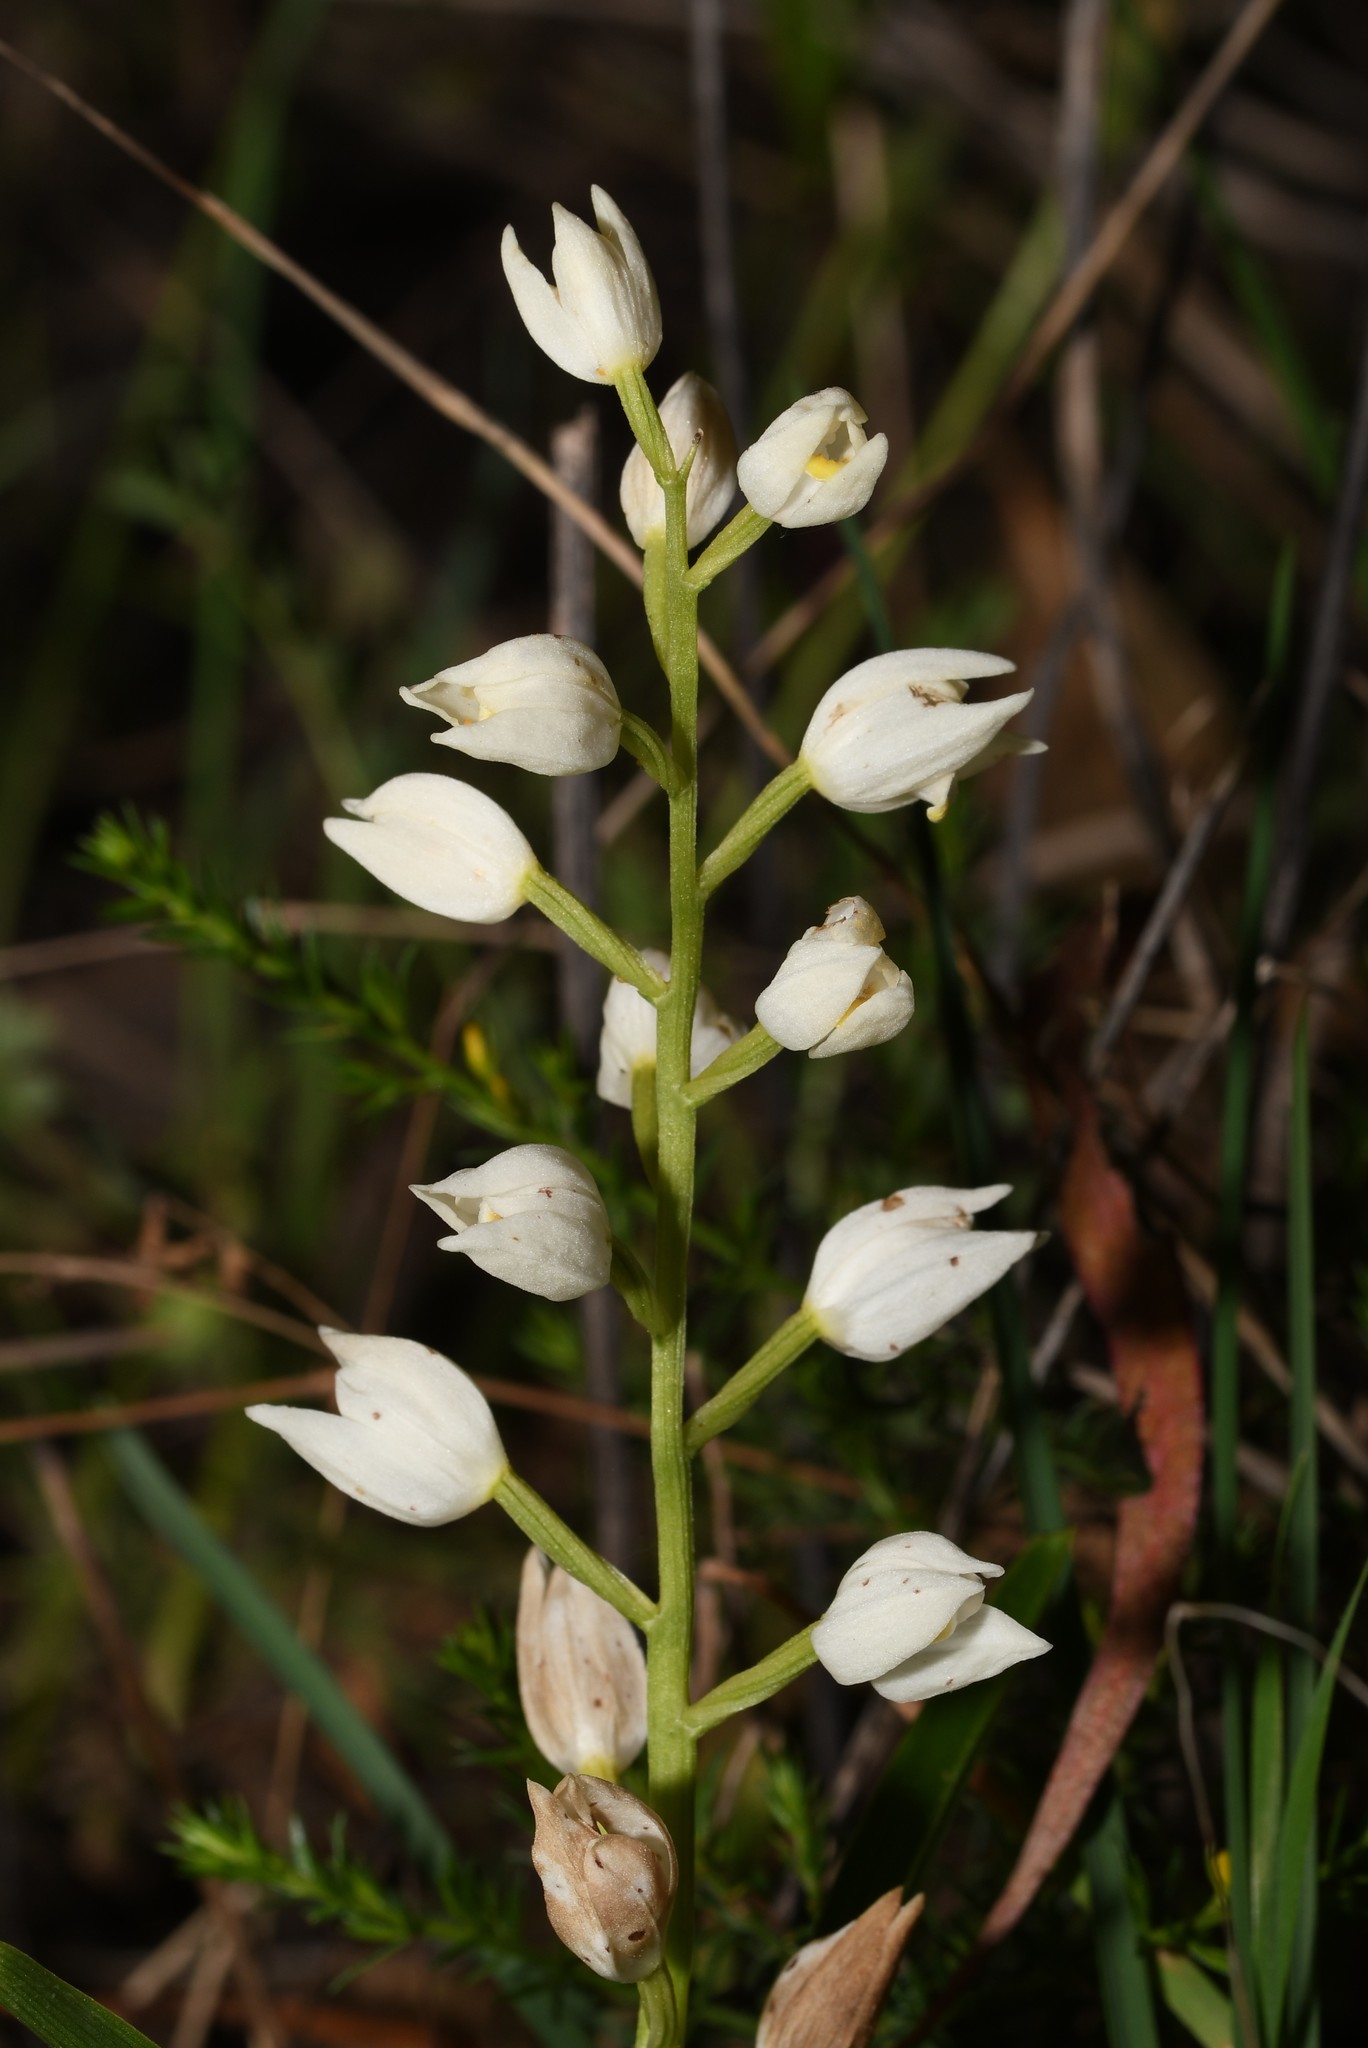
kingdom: Plantae
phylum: Tracheophyta
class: Liliopsida
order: Asparagales
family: Orchidaceae
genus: Cephalanthera
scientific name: Cephalanthera longifolia
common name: Narrow-leaved helleborine
